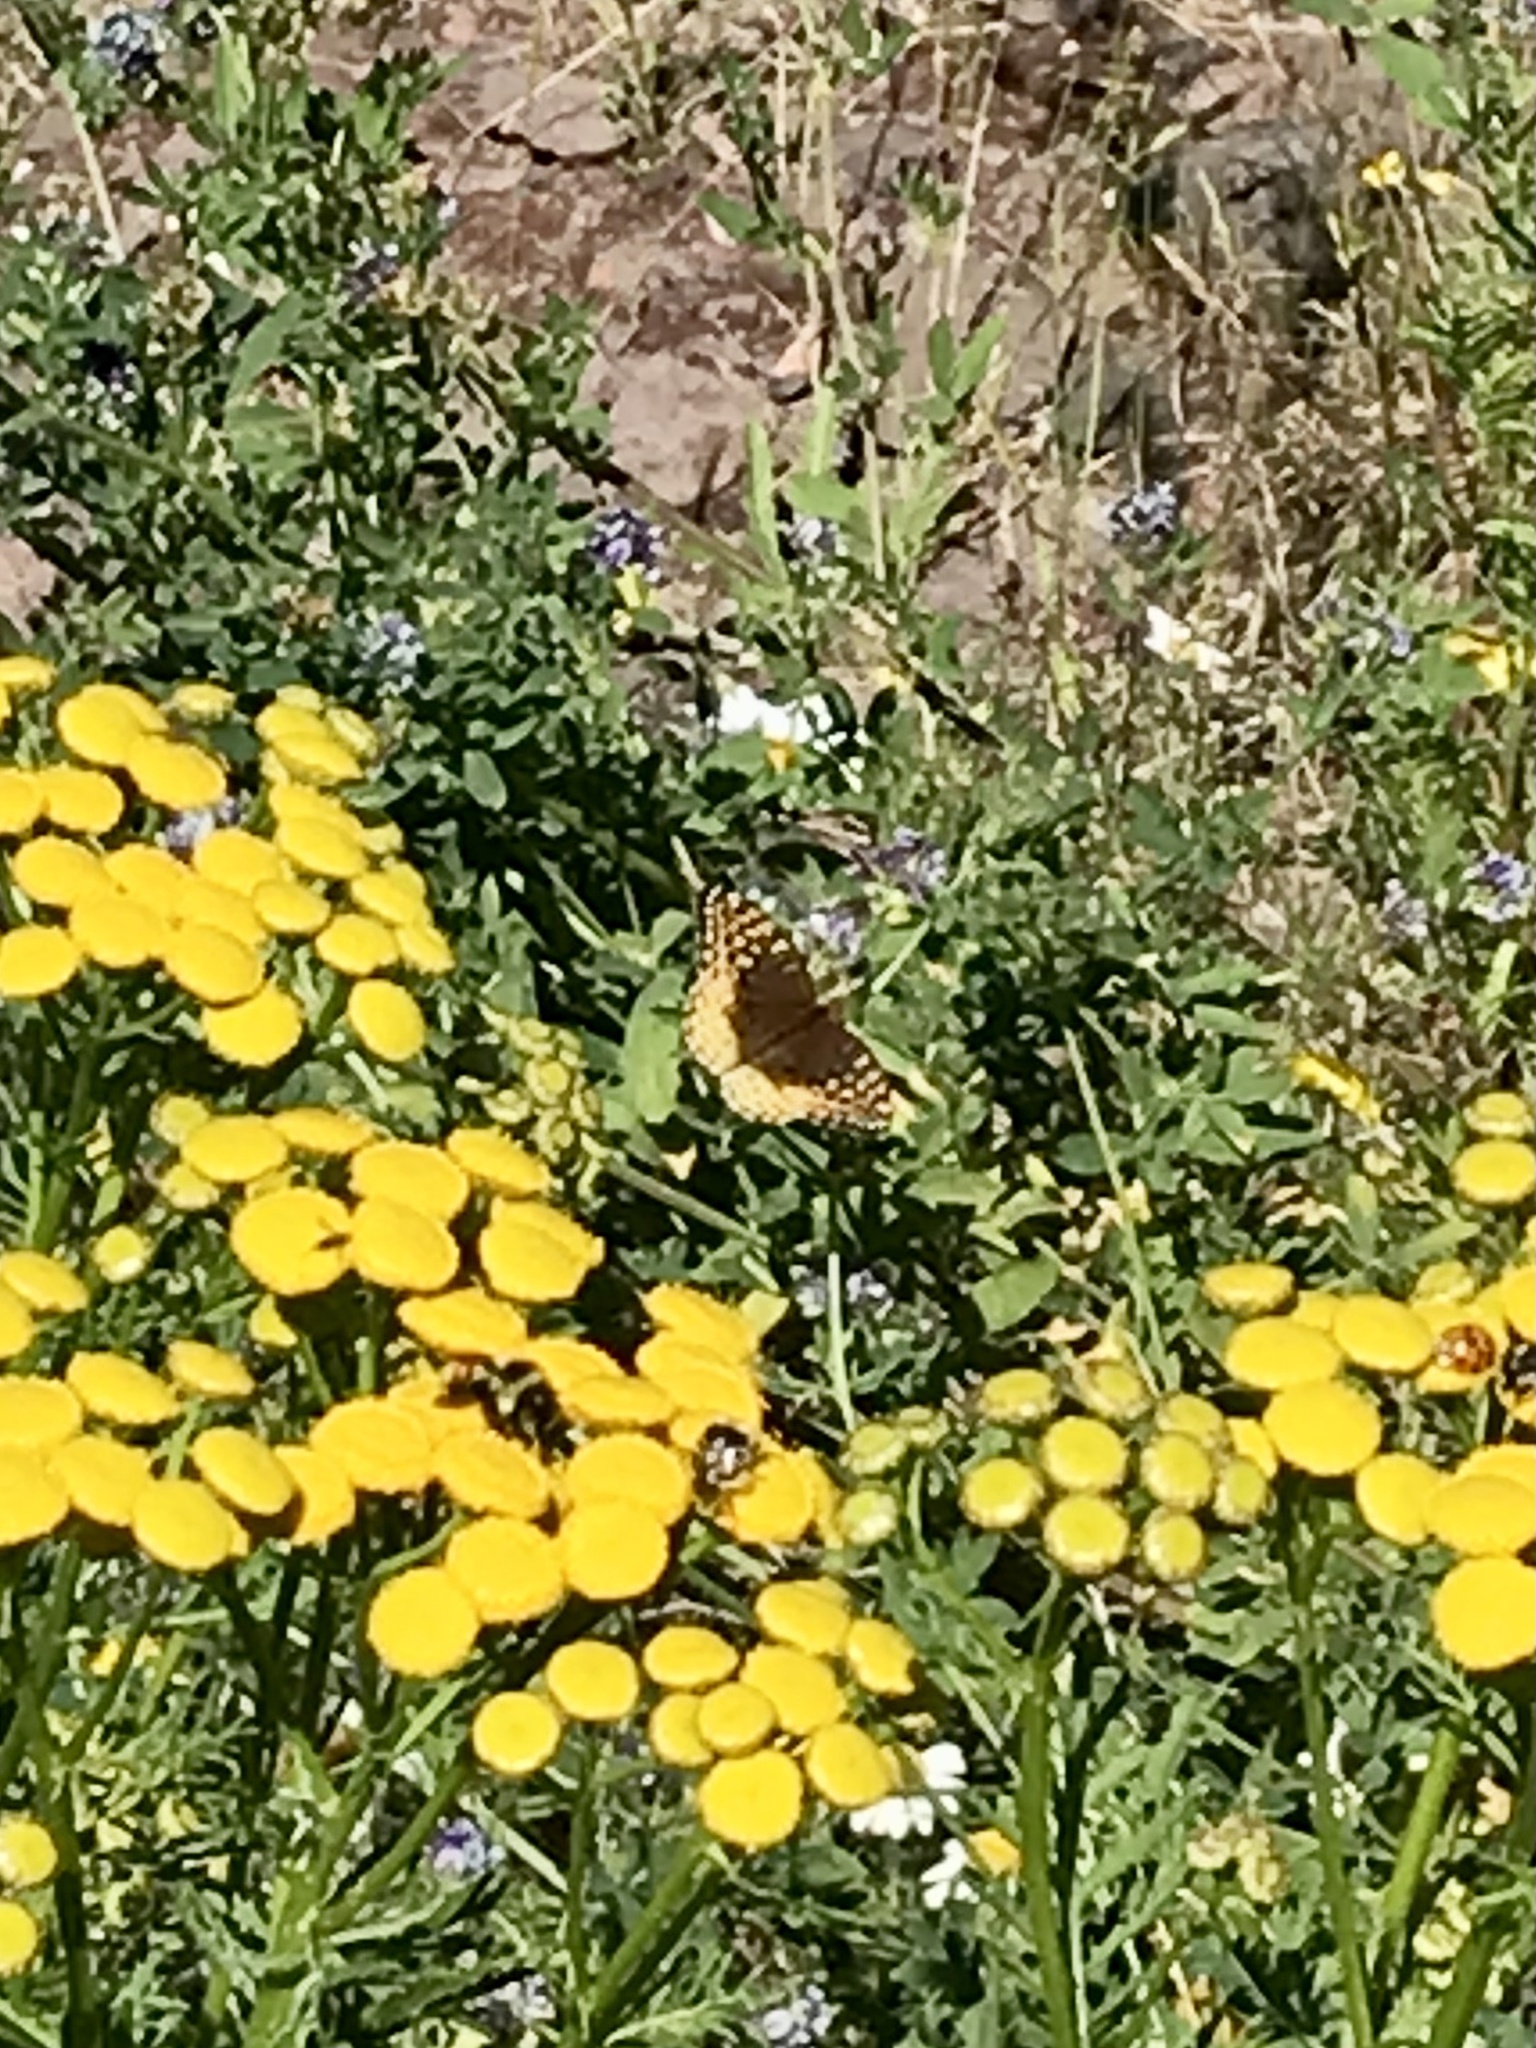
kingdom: Animalia
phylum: Arthropoda
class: Insecta
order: Lepidoptera
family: Nymphalidae
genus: Speyeria
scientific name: Speyeria cybele
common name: Great spangled fritillary
